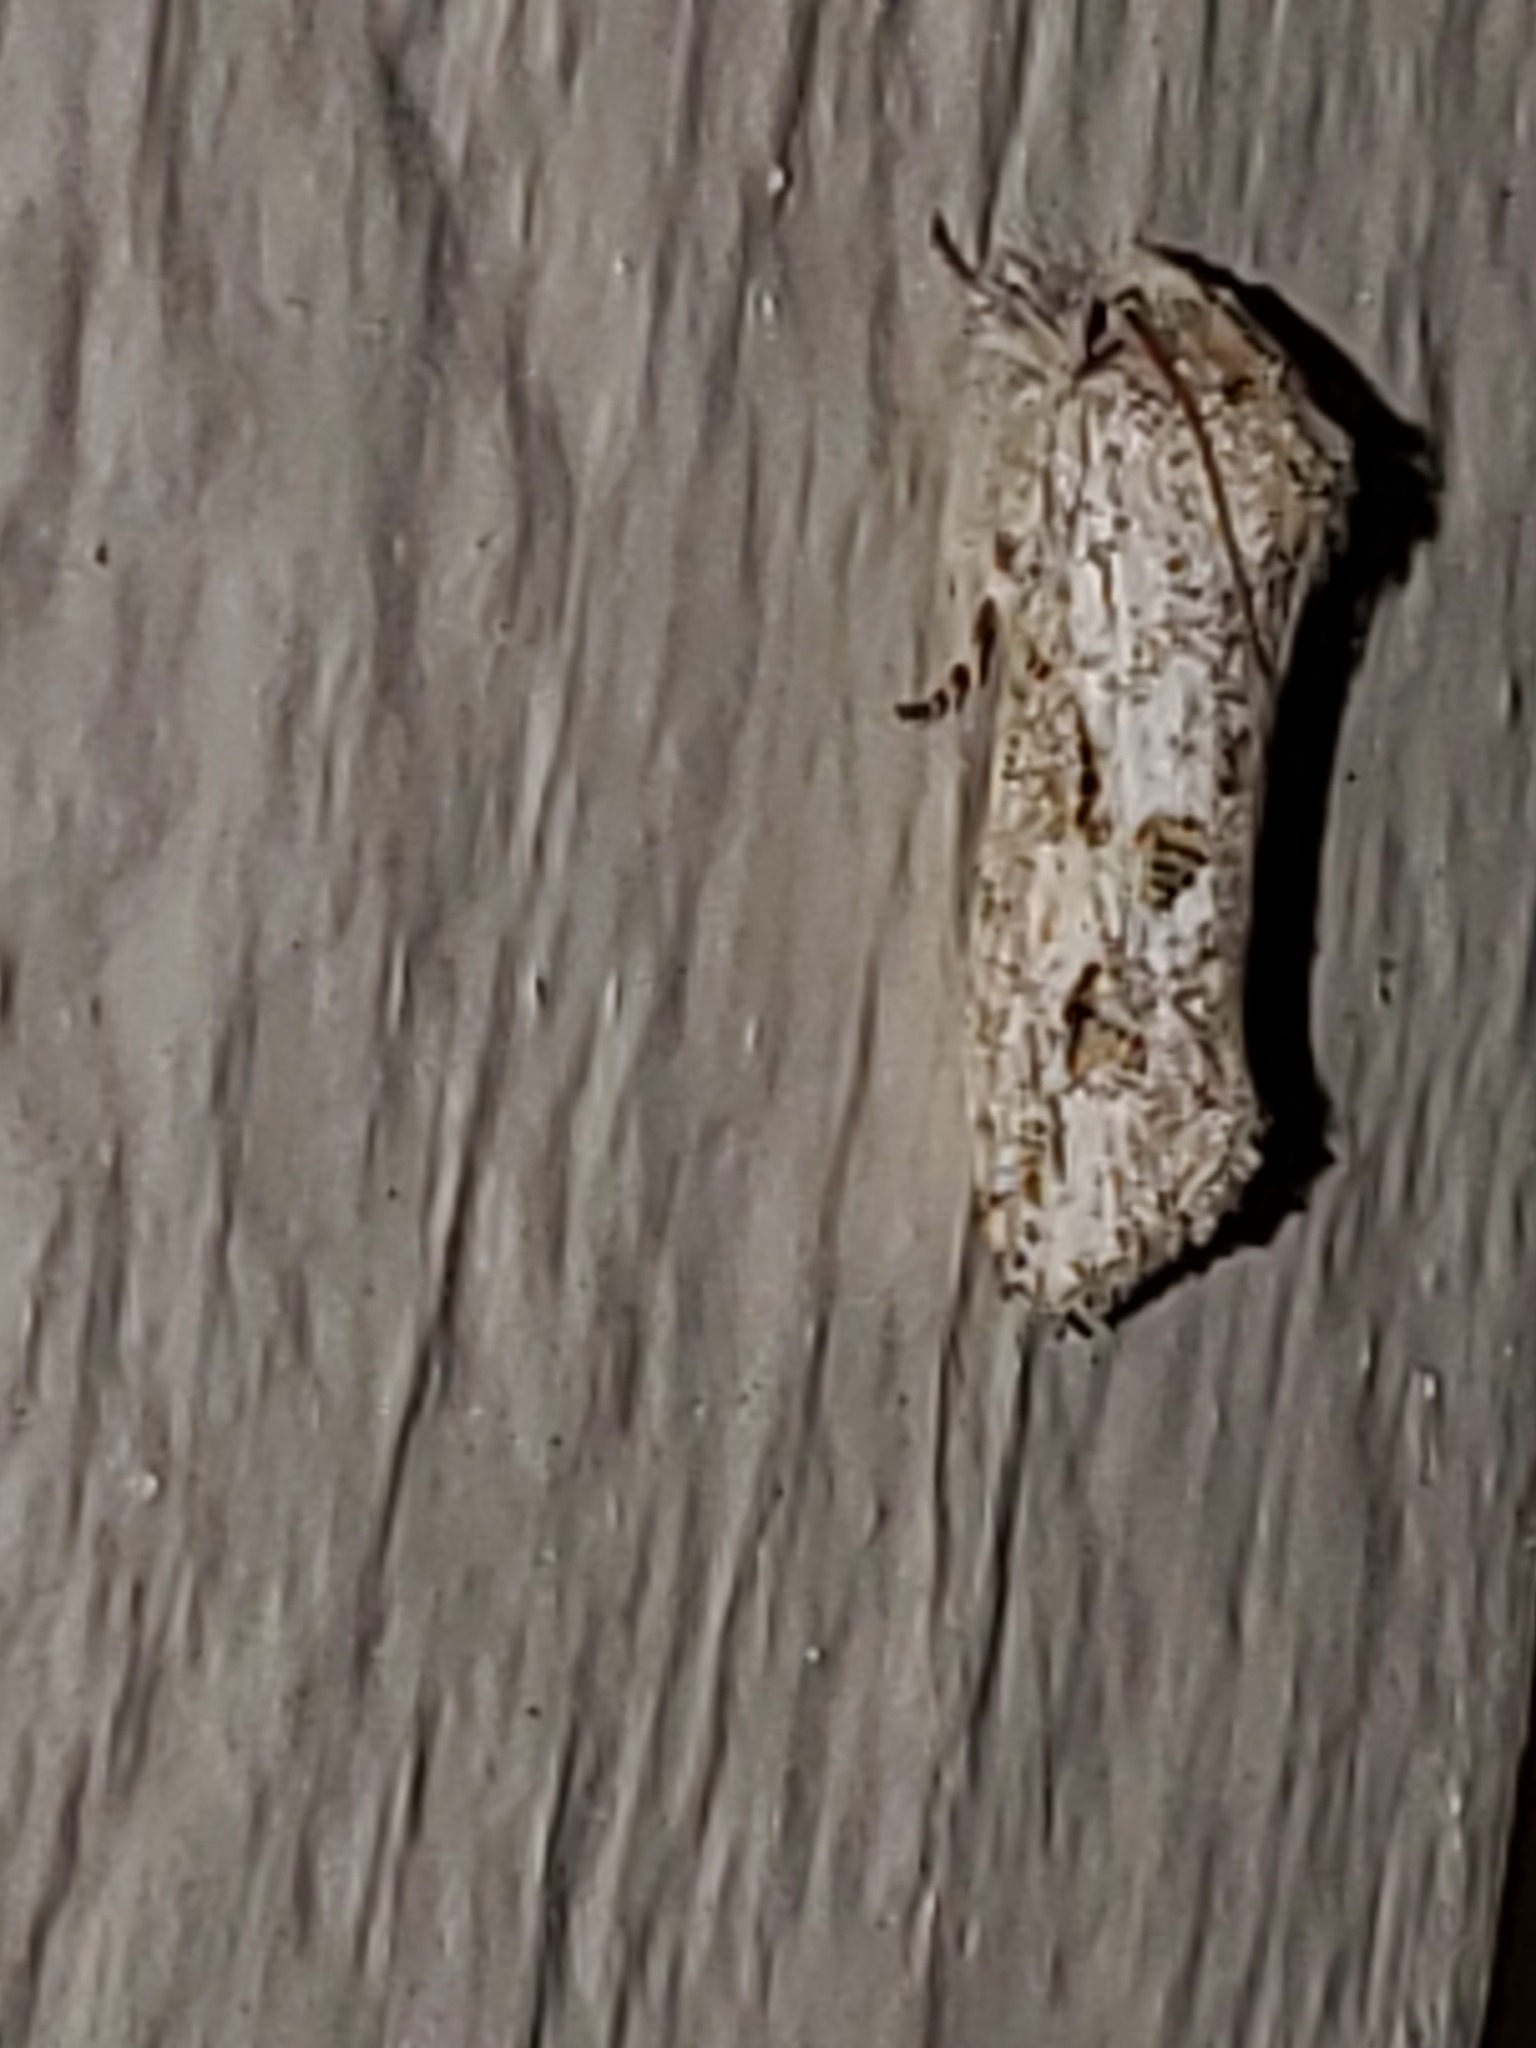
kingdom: Animalia
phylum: Arthropoda
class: Insecta
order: Lepidoptera
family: Tineidae
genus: Acrolophus
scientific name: Acrolophus griseus
